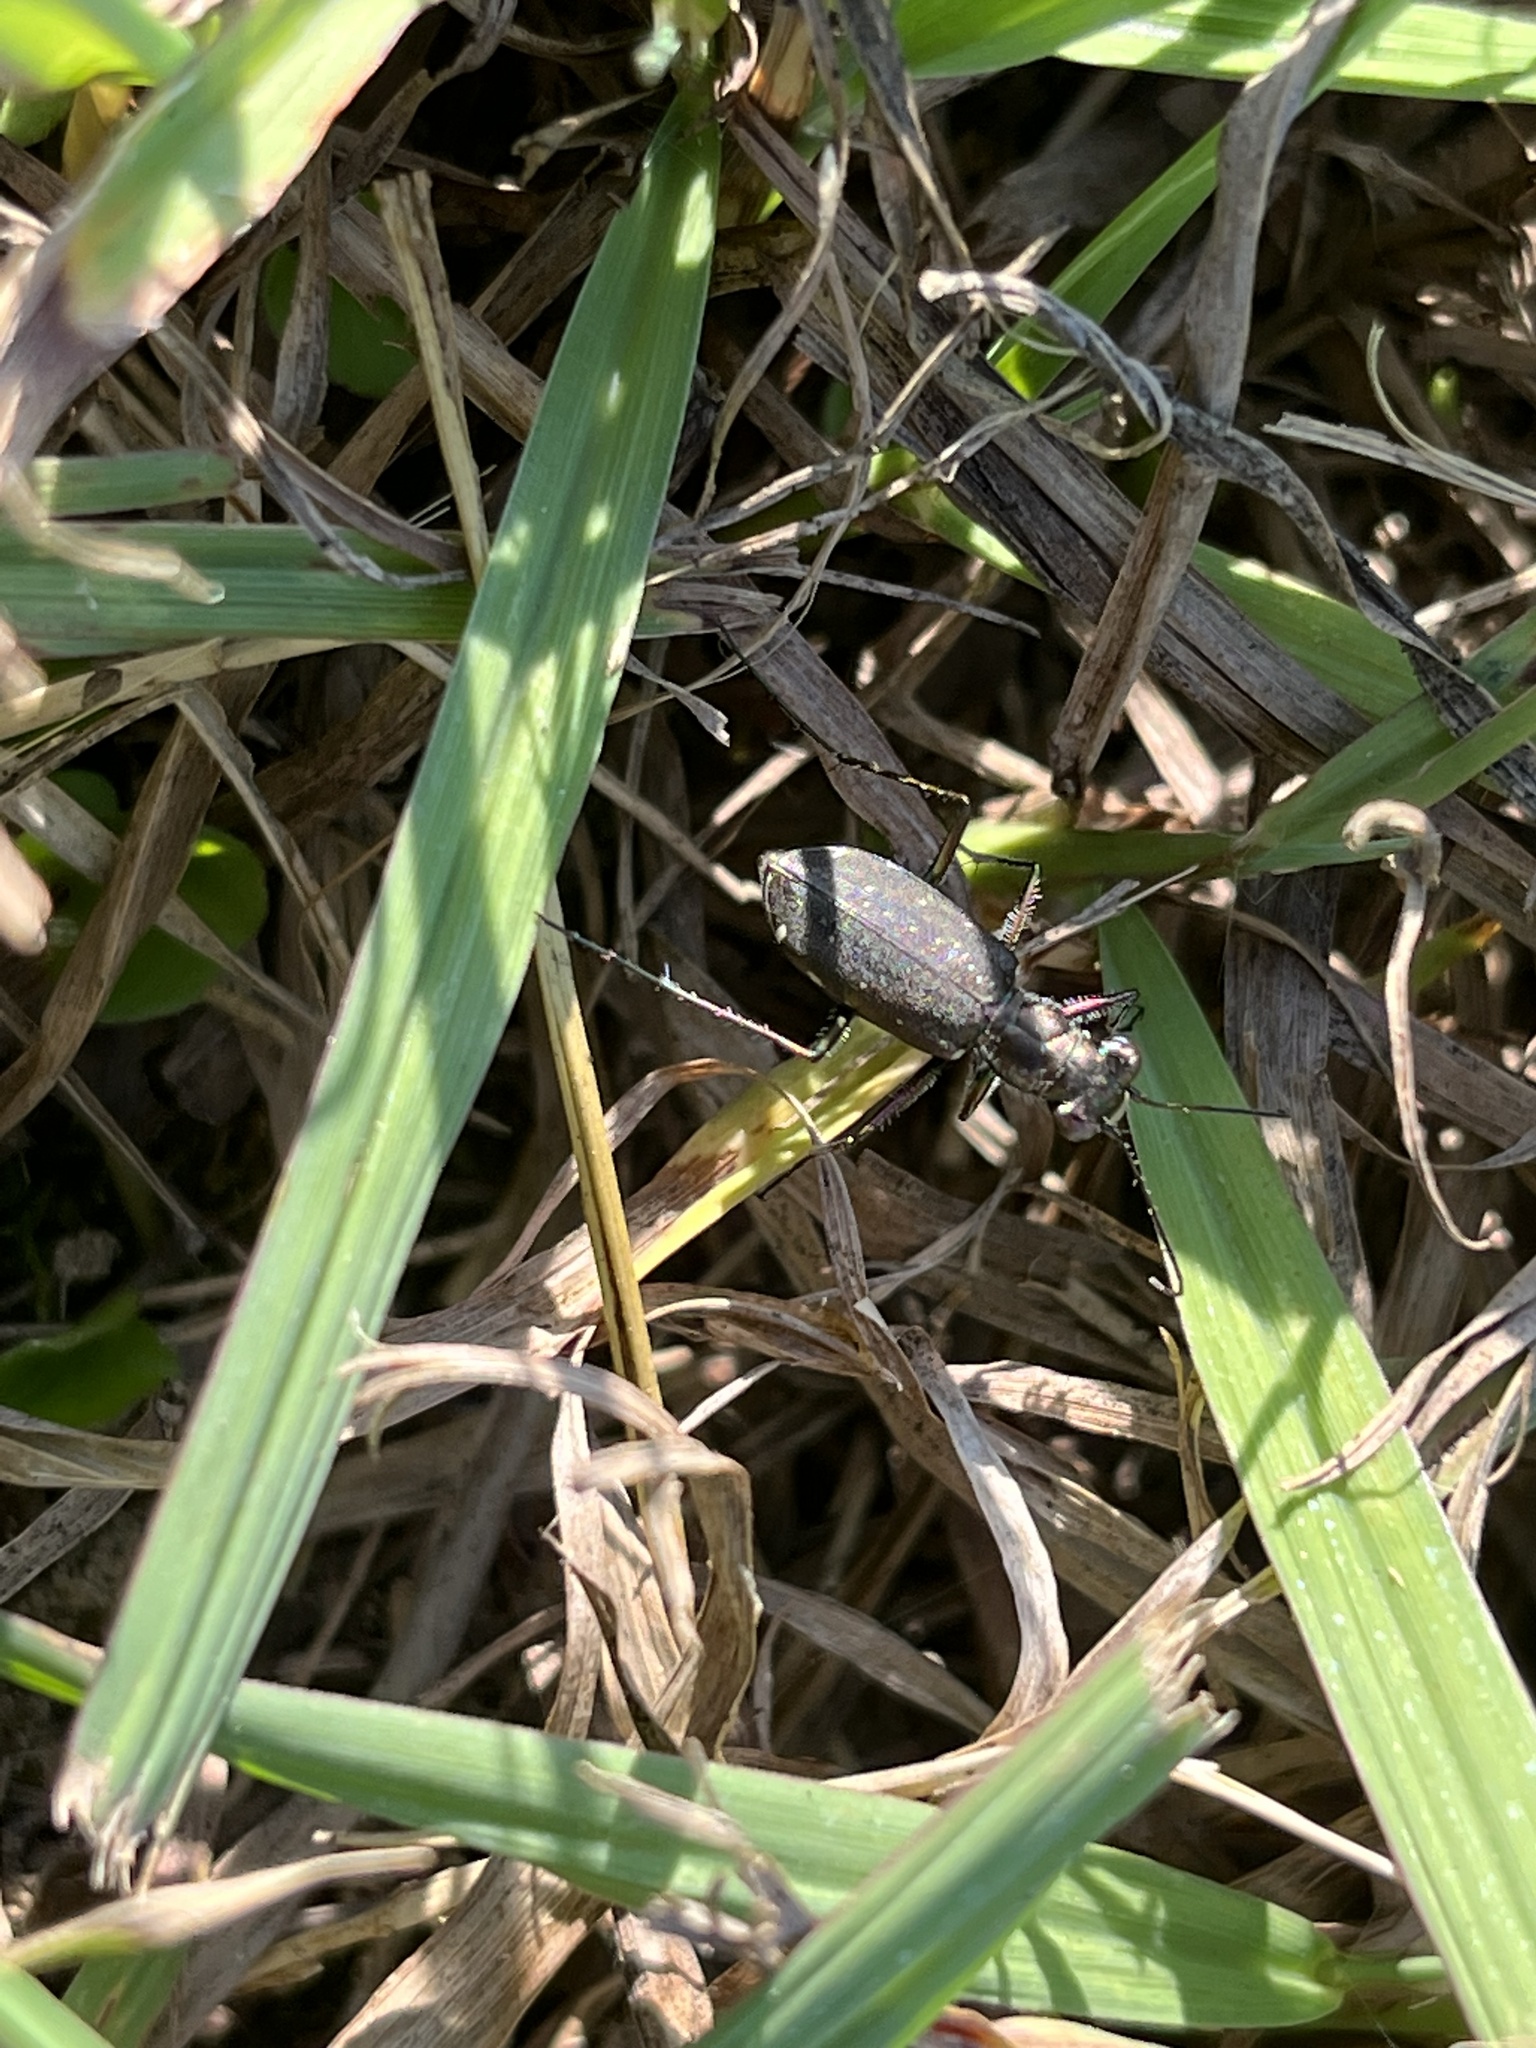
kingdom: Animalia
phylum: Arthropoda
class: Insecta
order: Coleoptera
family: Carabidae
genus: Cicindela
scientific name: Cicindela punctulata
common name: Punctured tiger beetle
